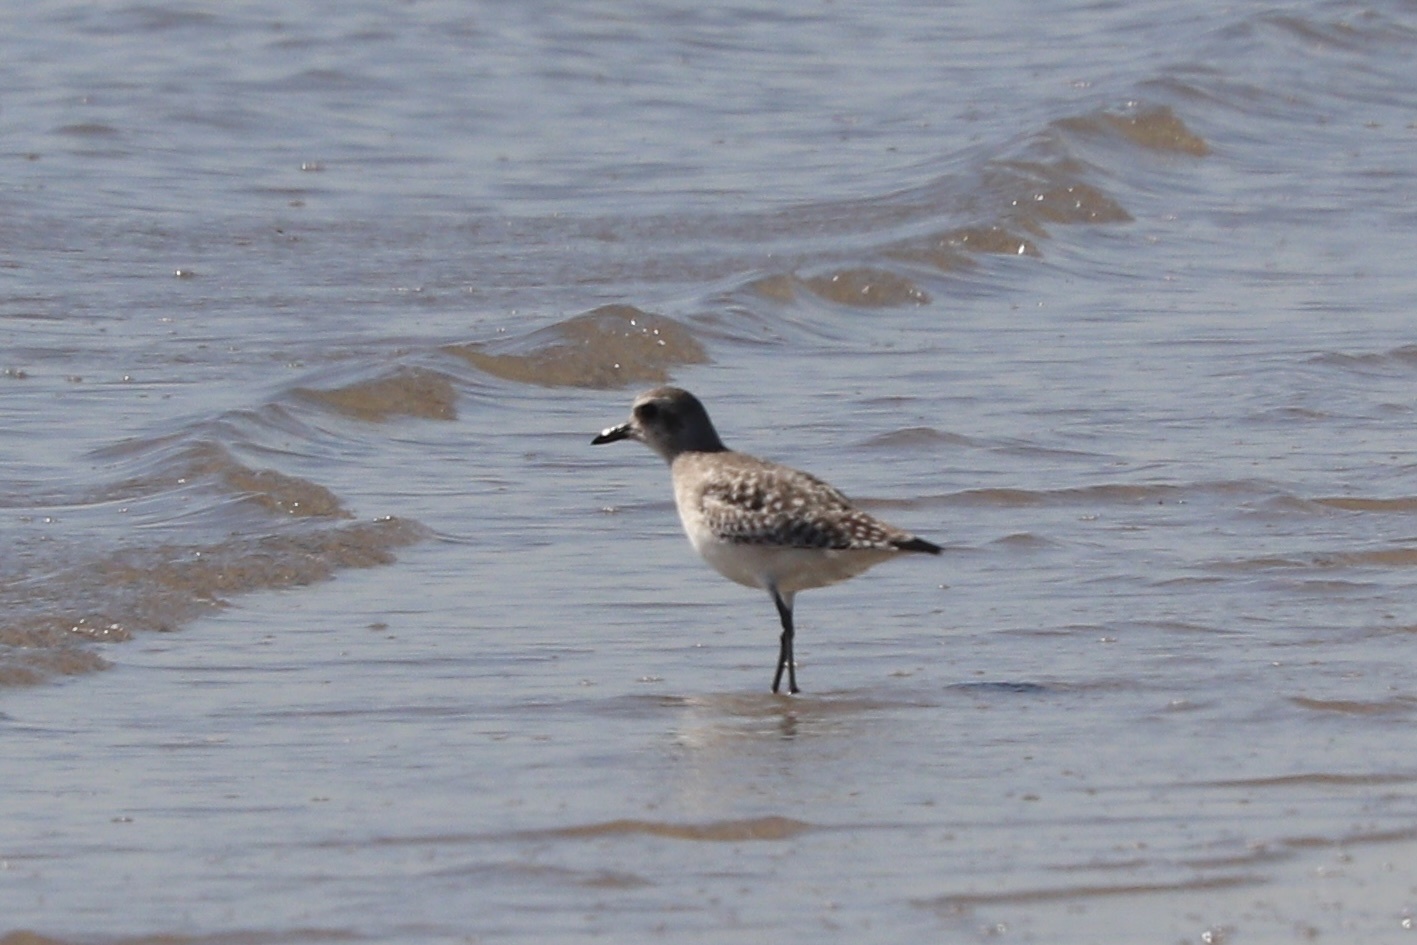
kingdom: Animalia
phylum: Chordata
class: Aves
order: Charadriiformes
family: Charadriidae
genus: Pluvialis
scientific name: Pluvialis squatarola
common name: Grey plover
